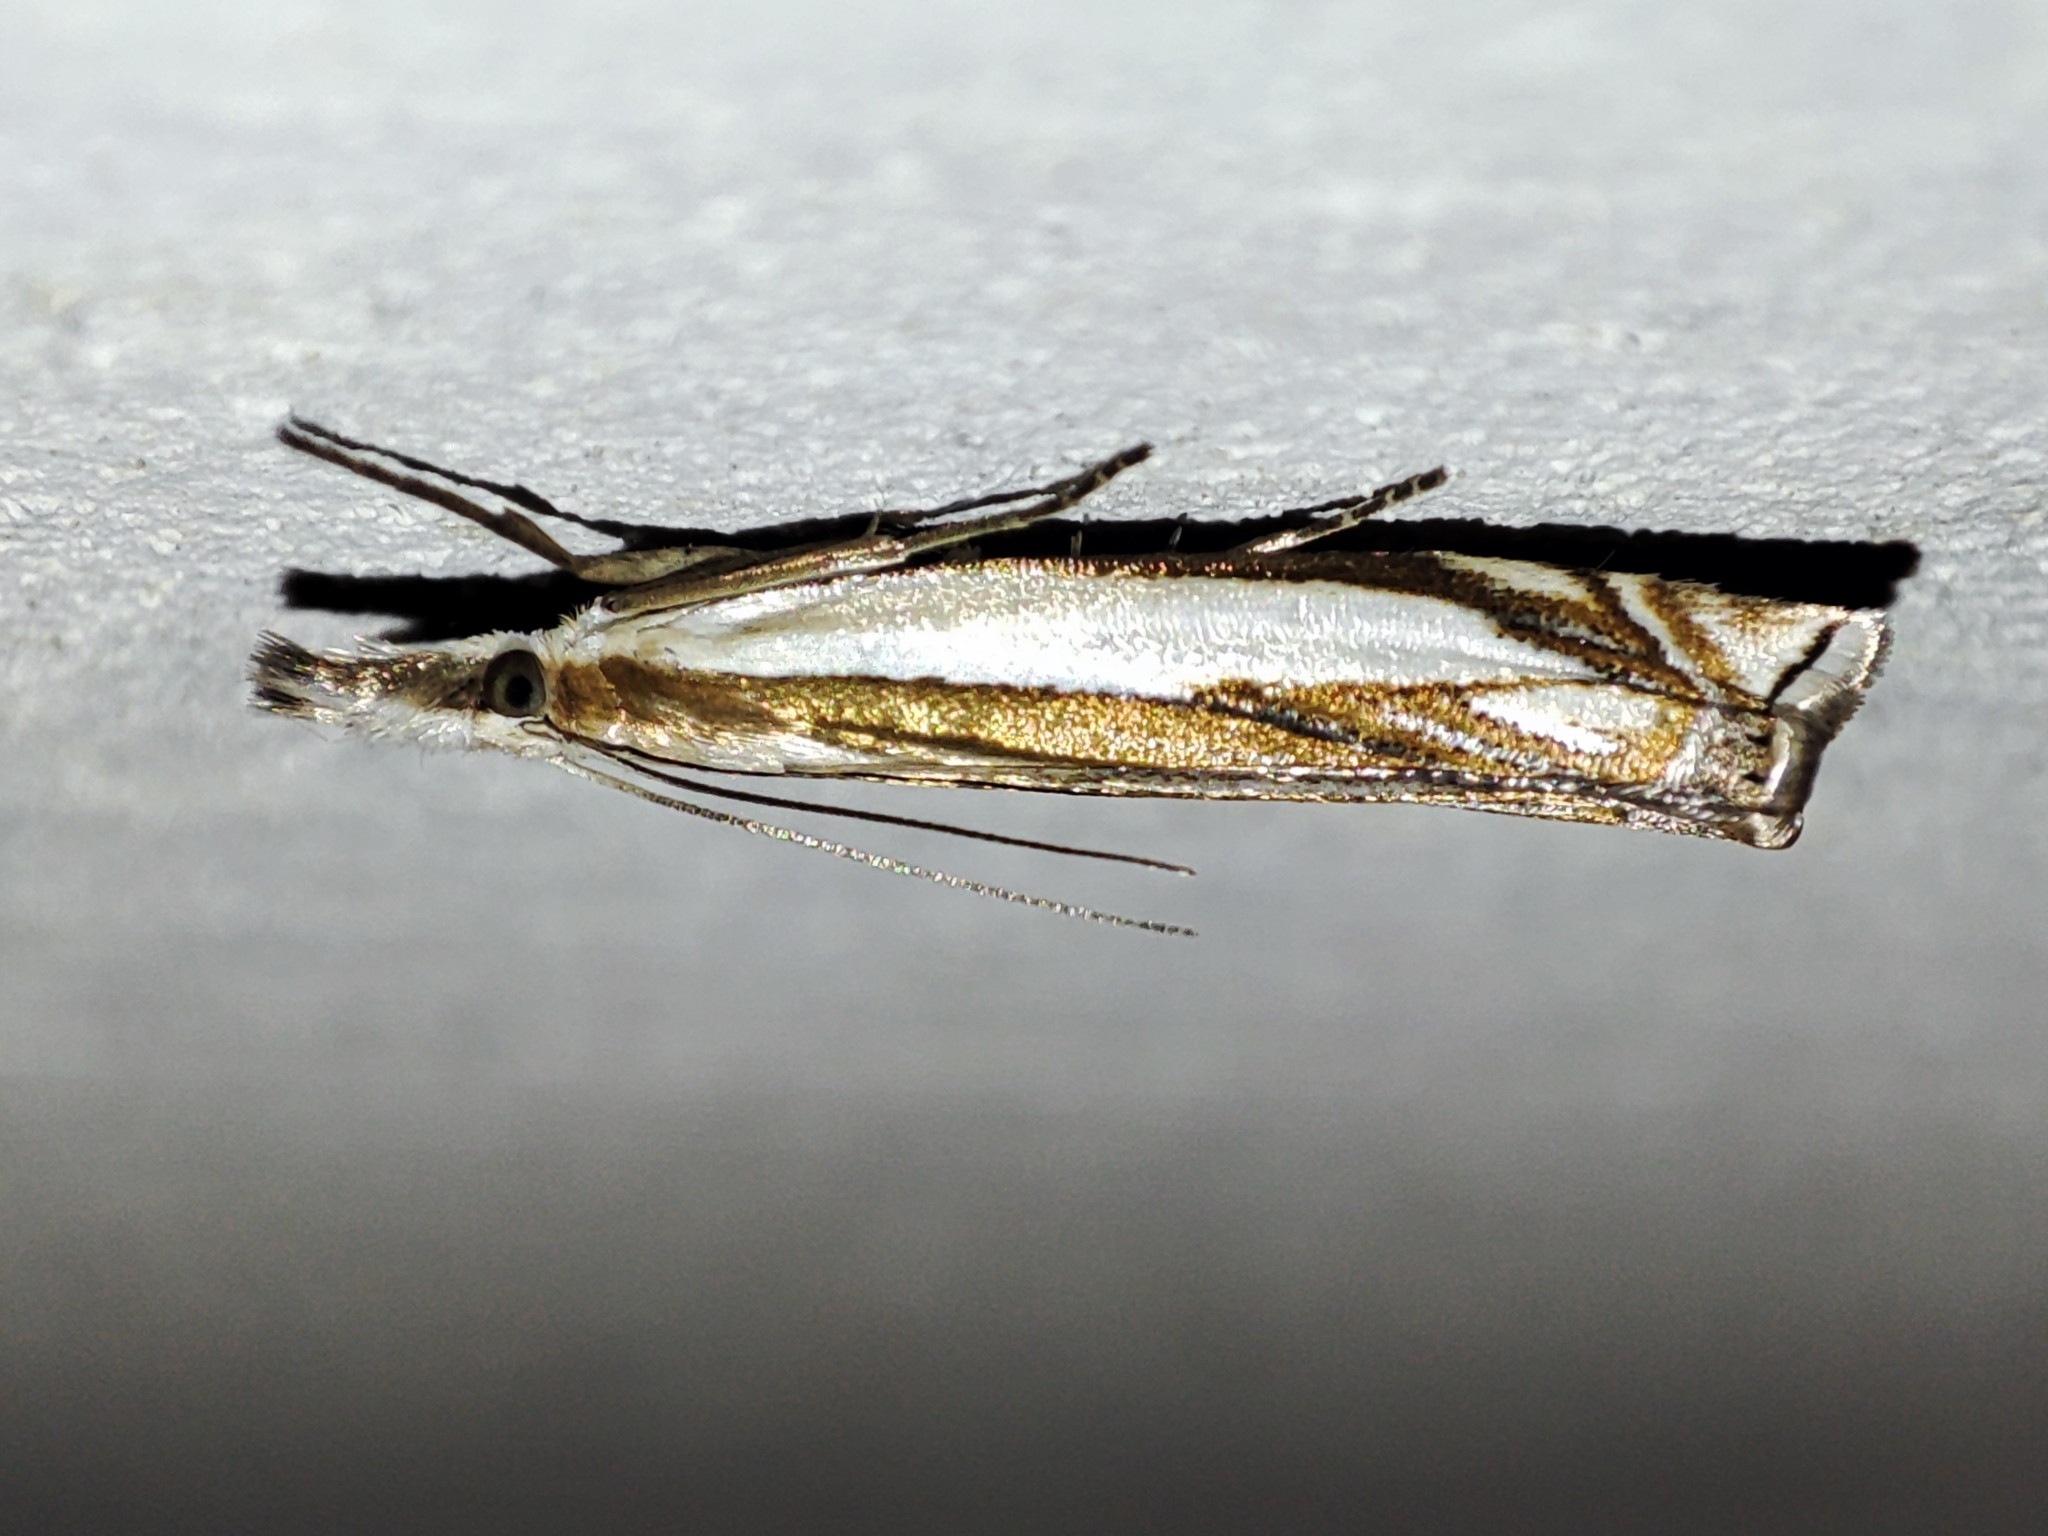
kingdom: Animalia
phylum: Arthropoda
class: Insecta
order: Lepidoptera
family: Crambidae
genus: Crambus
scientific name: Crambus pascuella
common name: Inlaid grass-veneer
